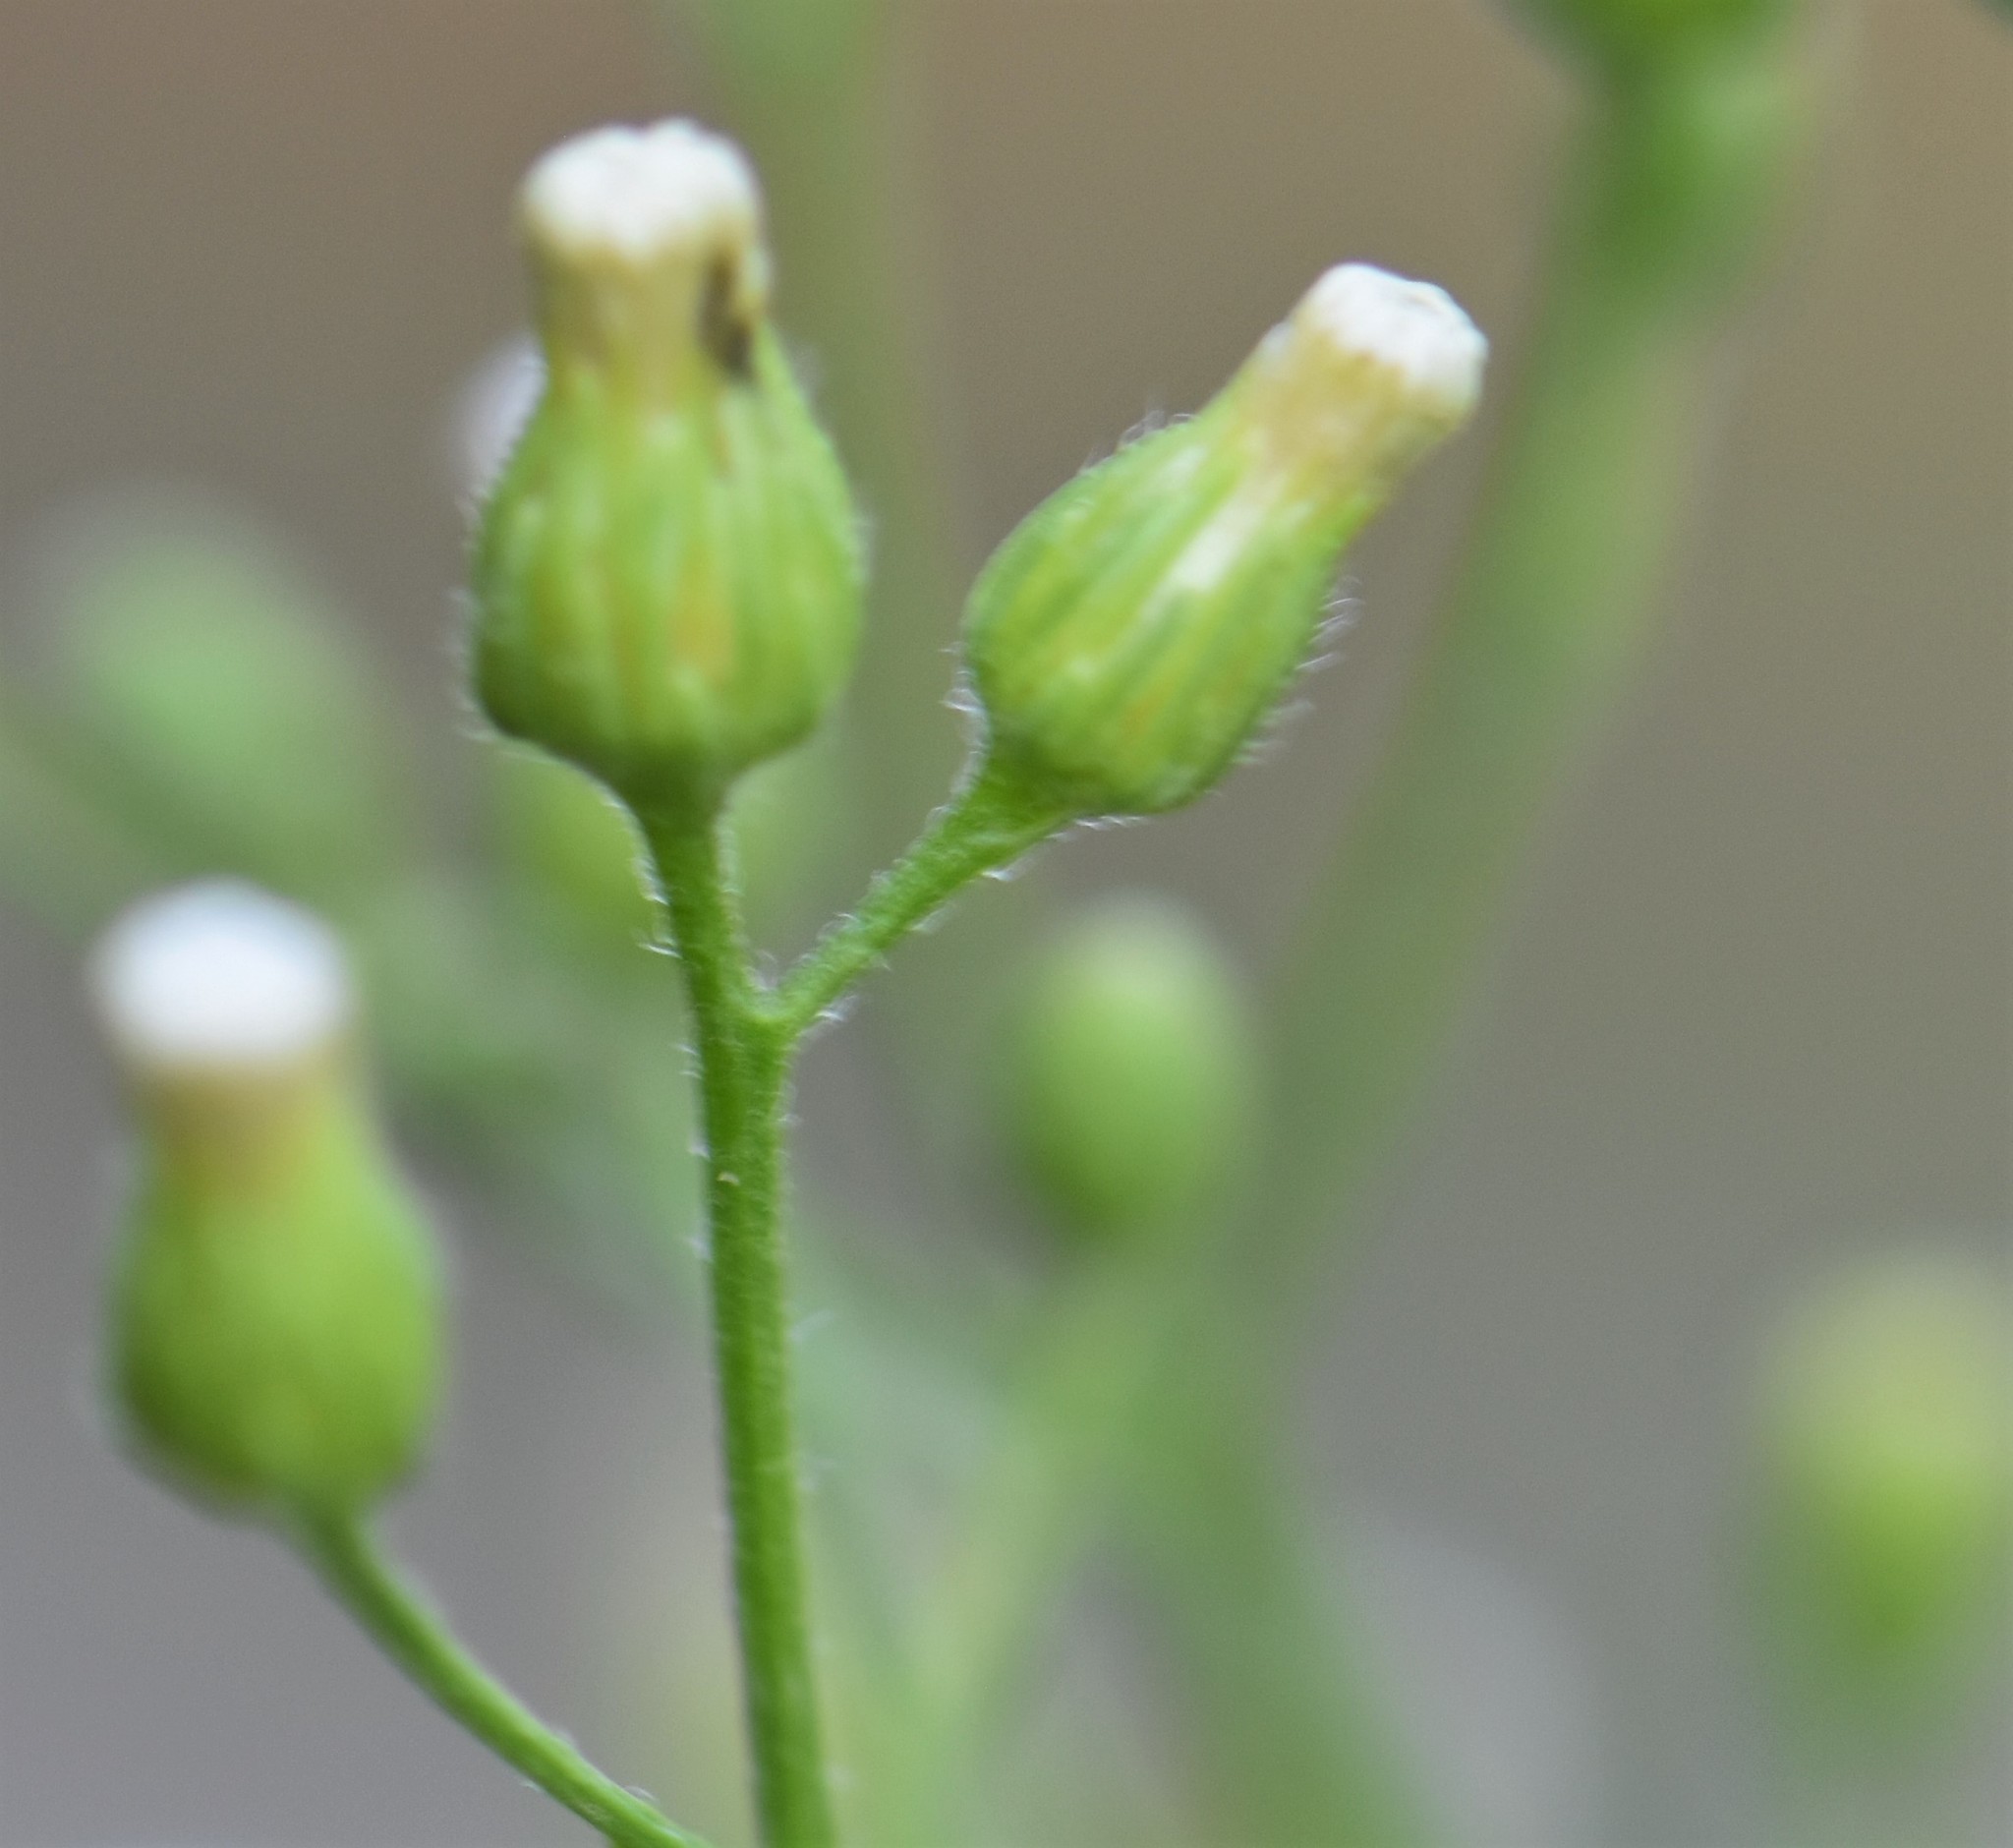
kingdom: Plantae
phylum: Tracheophyta
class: Magnoliopsida
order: Asterales
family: Asteraceae
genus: Erigeron
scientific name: Erigeron canadensis
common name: Canadian fleabane
